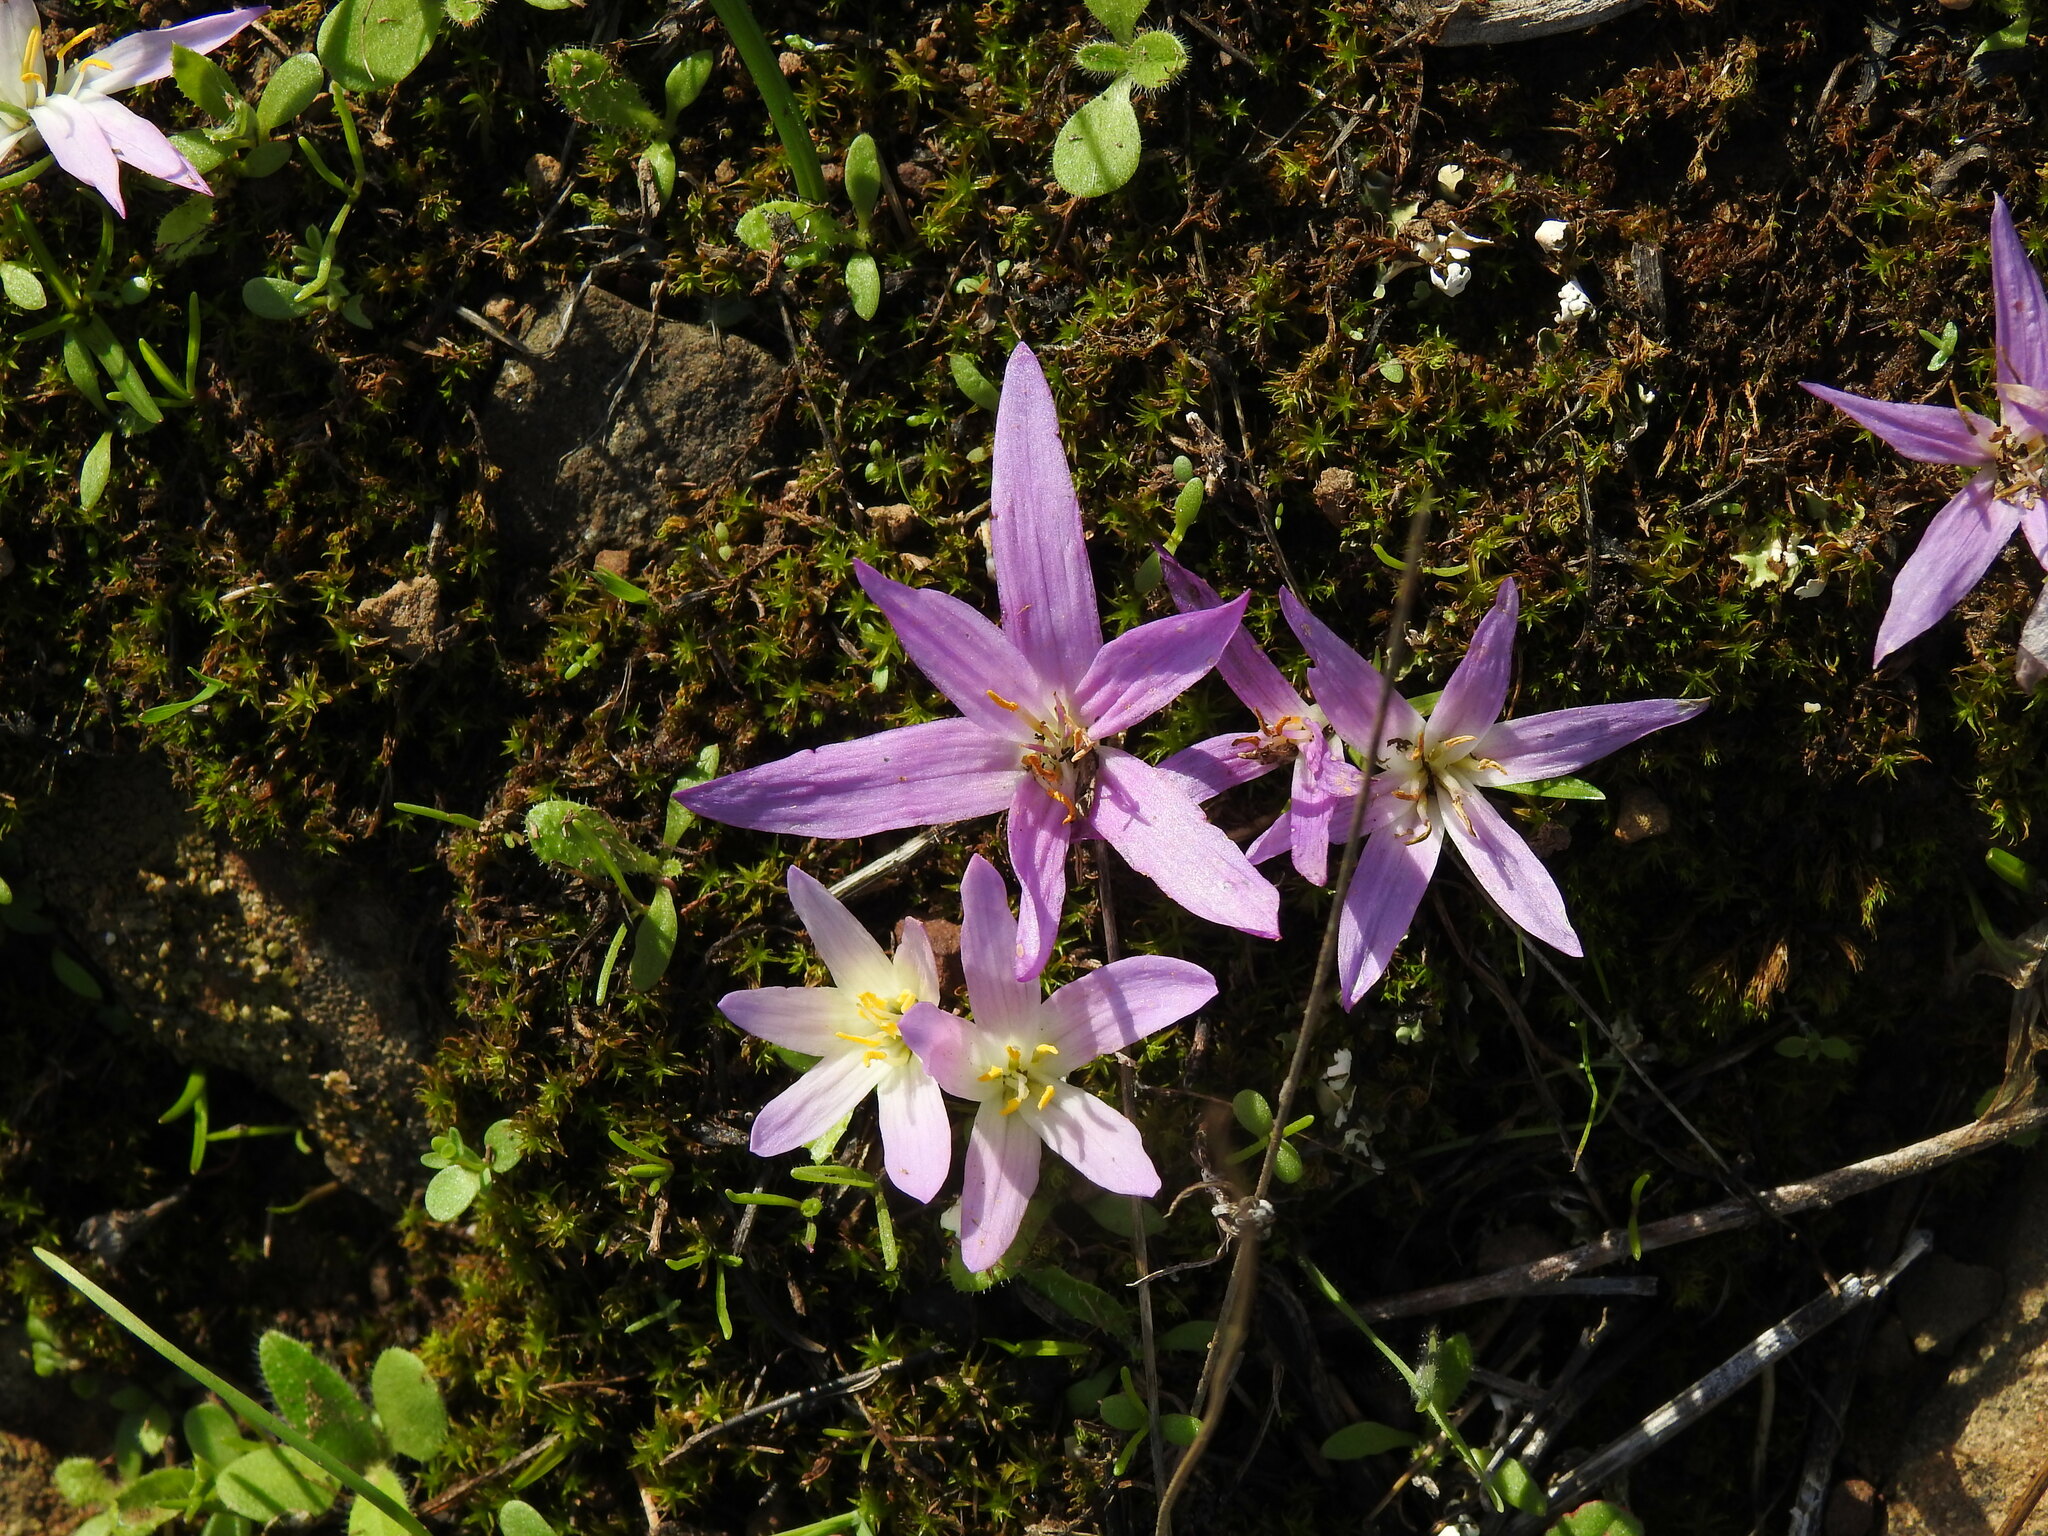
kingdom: Plantae
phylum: Tracheophyta
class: Liliopsida
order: Liliales
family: Colchicaceae
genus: Colchicum
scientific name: Colchicum filifolium
